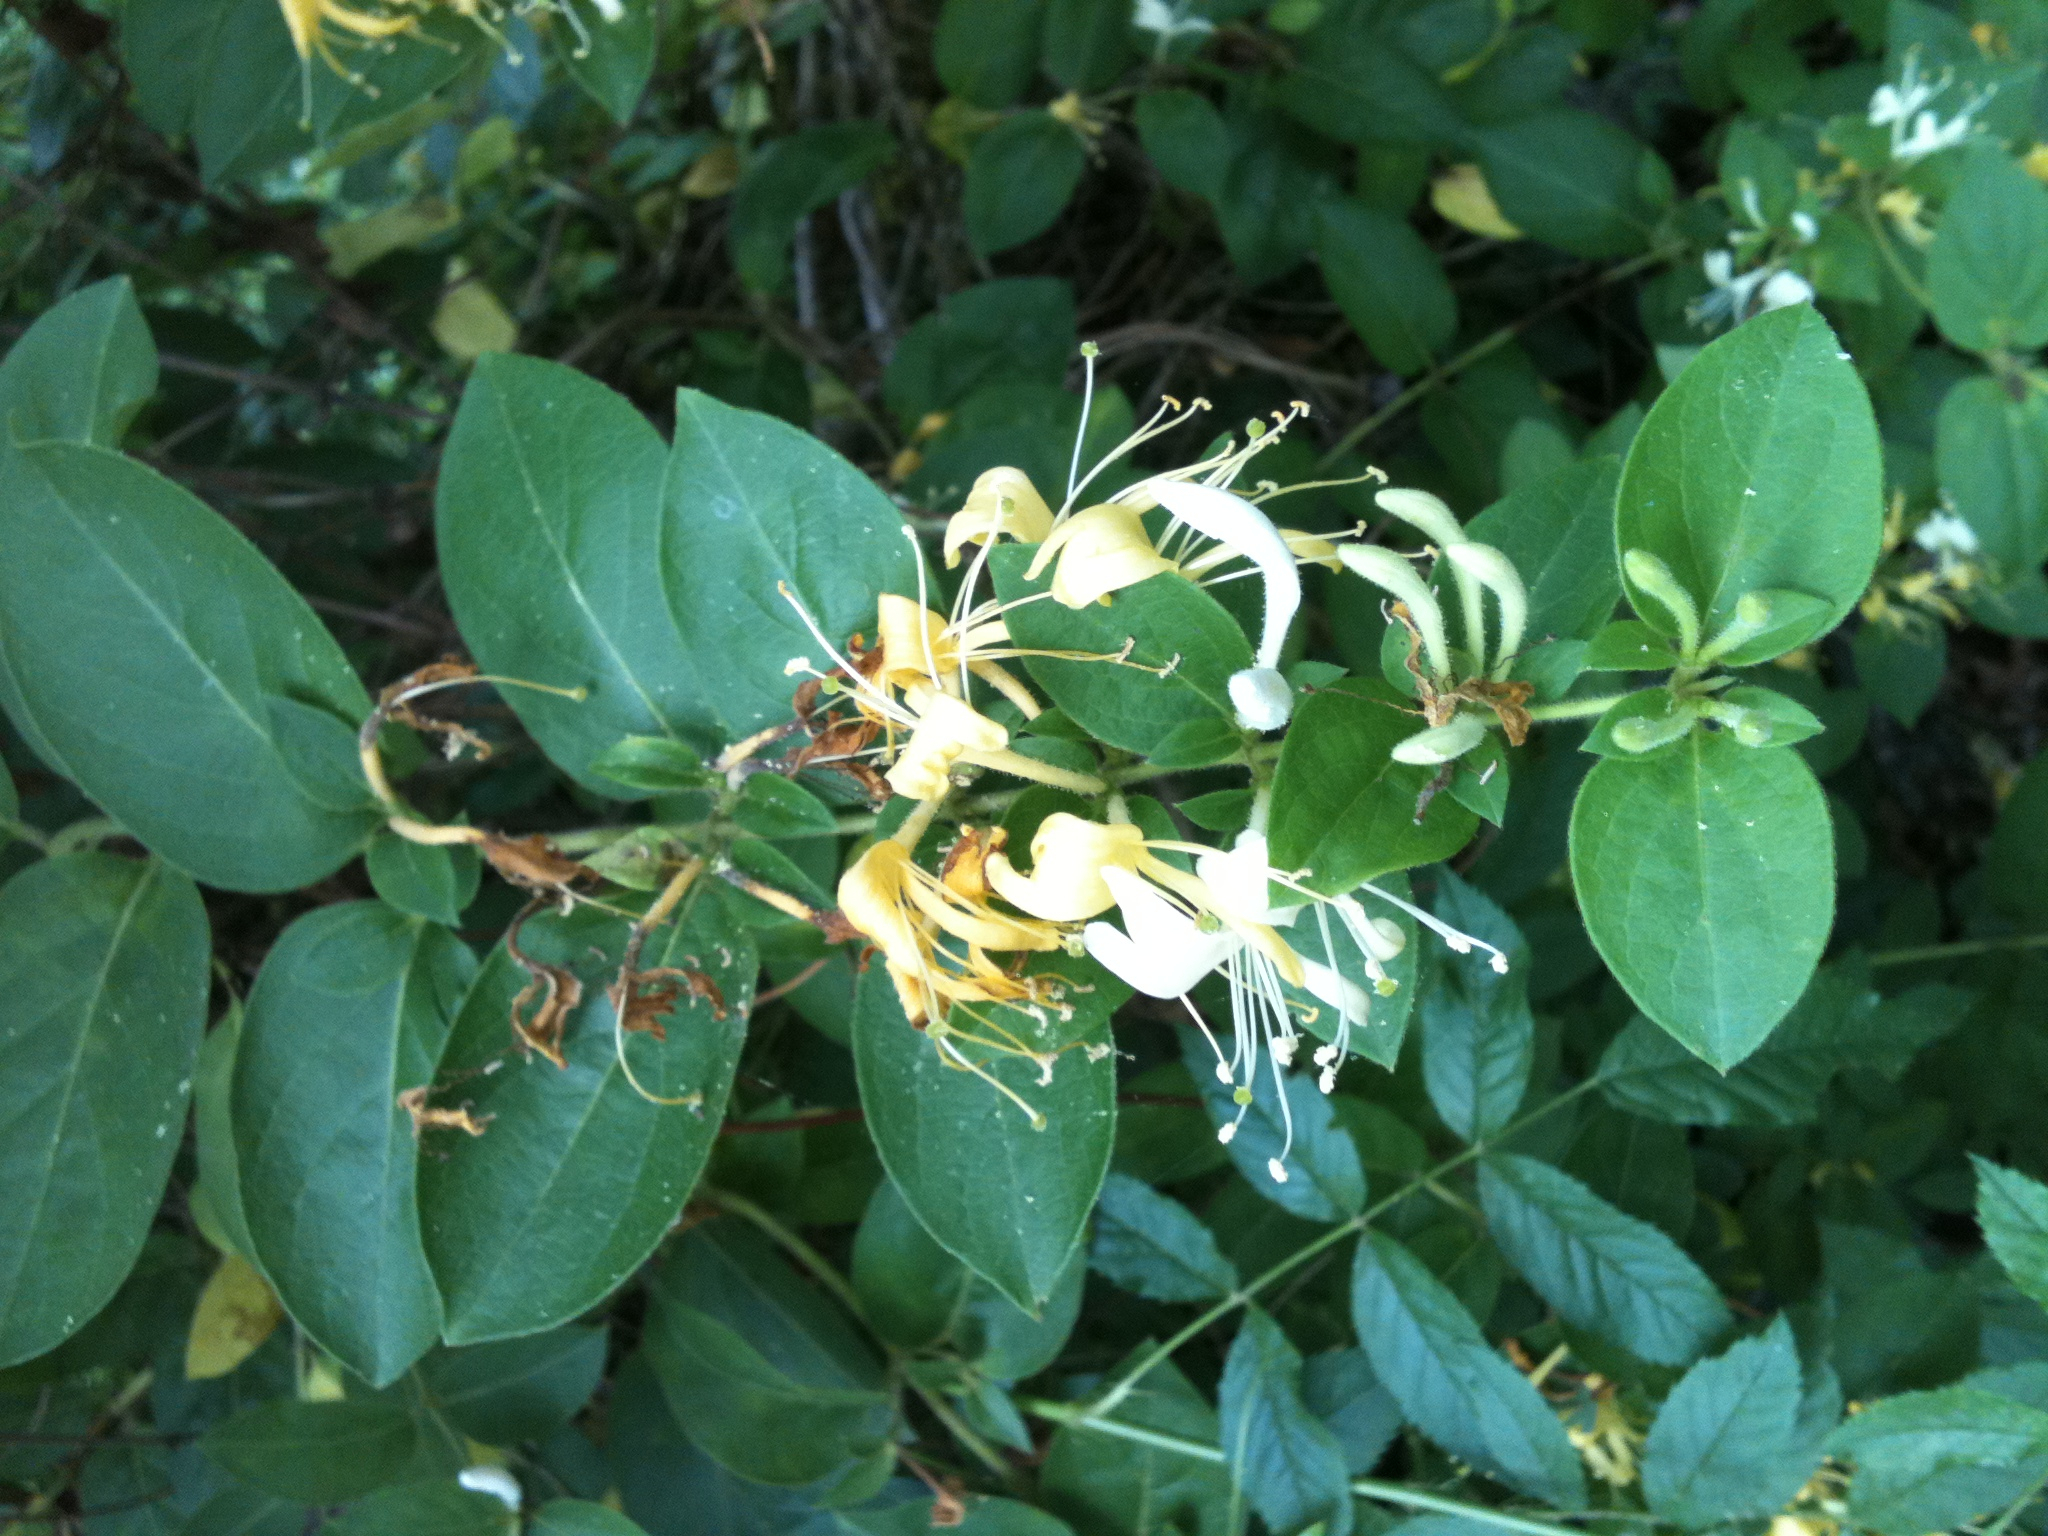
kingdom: Plantae
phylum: Tracheophyta
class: Magnoliopsida
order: Dipsacales
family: Caprifoliaceae
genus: Lonicera
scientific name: Lonicera japonica
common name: Japanese honeysuckle
